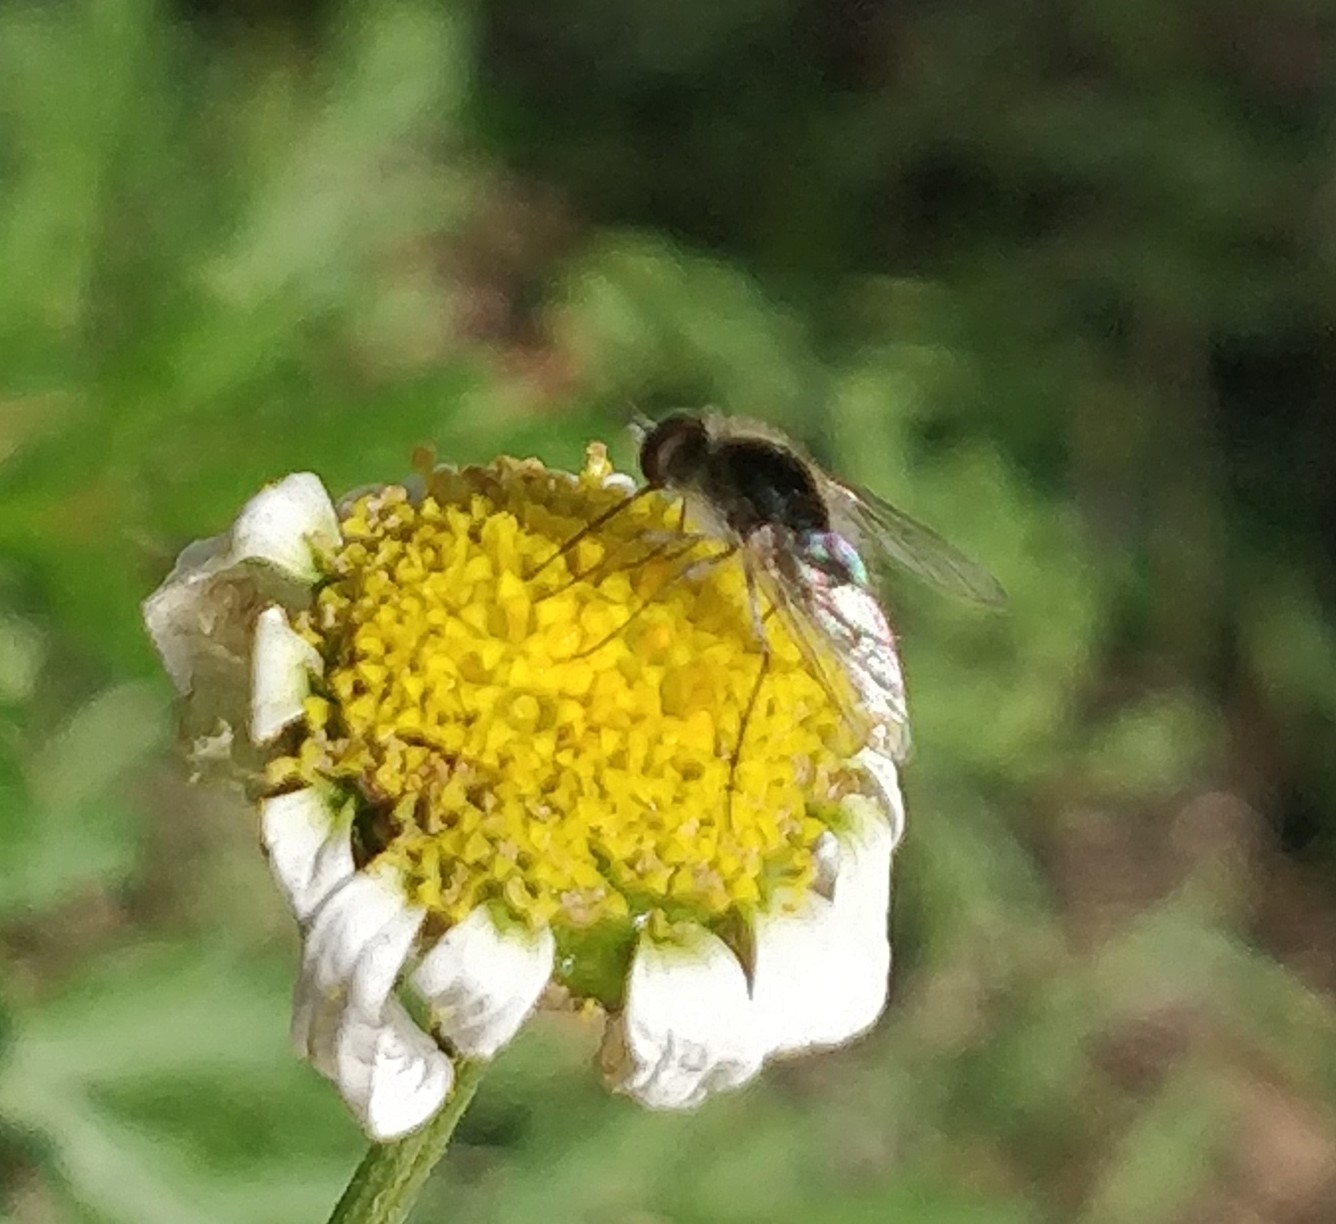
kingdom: Animalia
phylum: Arthropoda
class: Insecta
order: Diptera
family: Bombyliidae
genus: Geron
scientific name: Geron hesperidum
